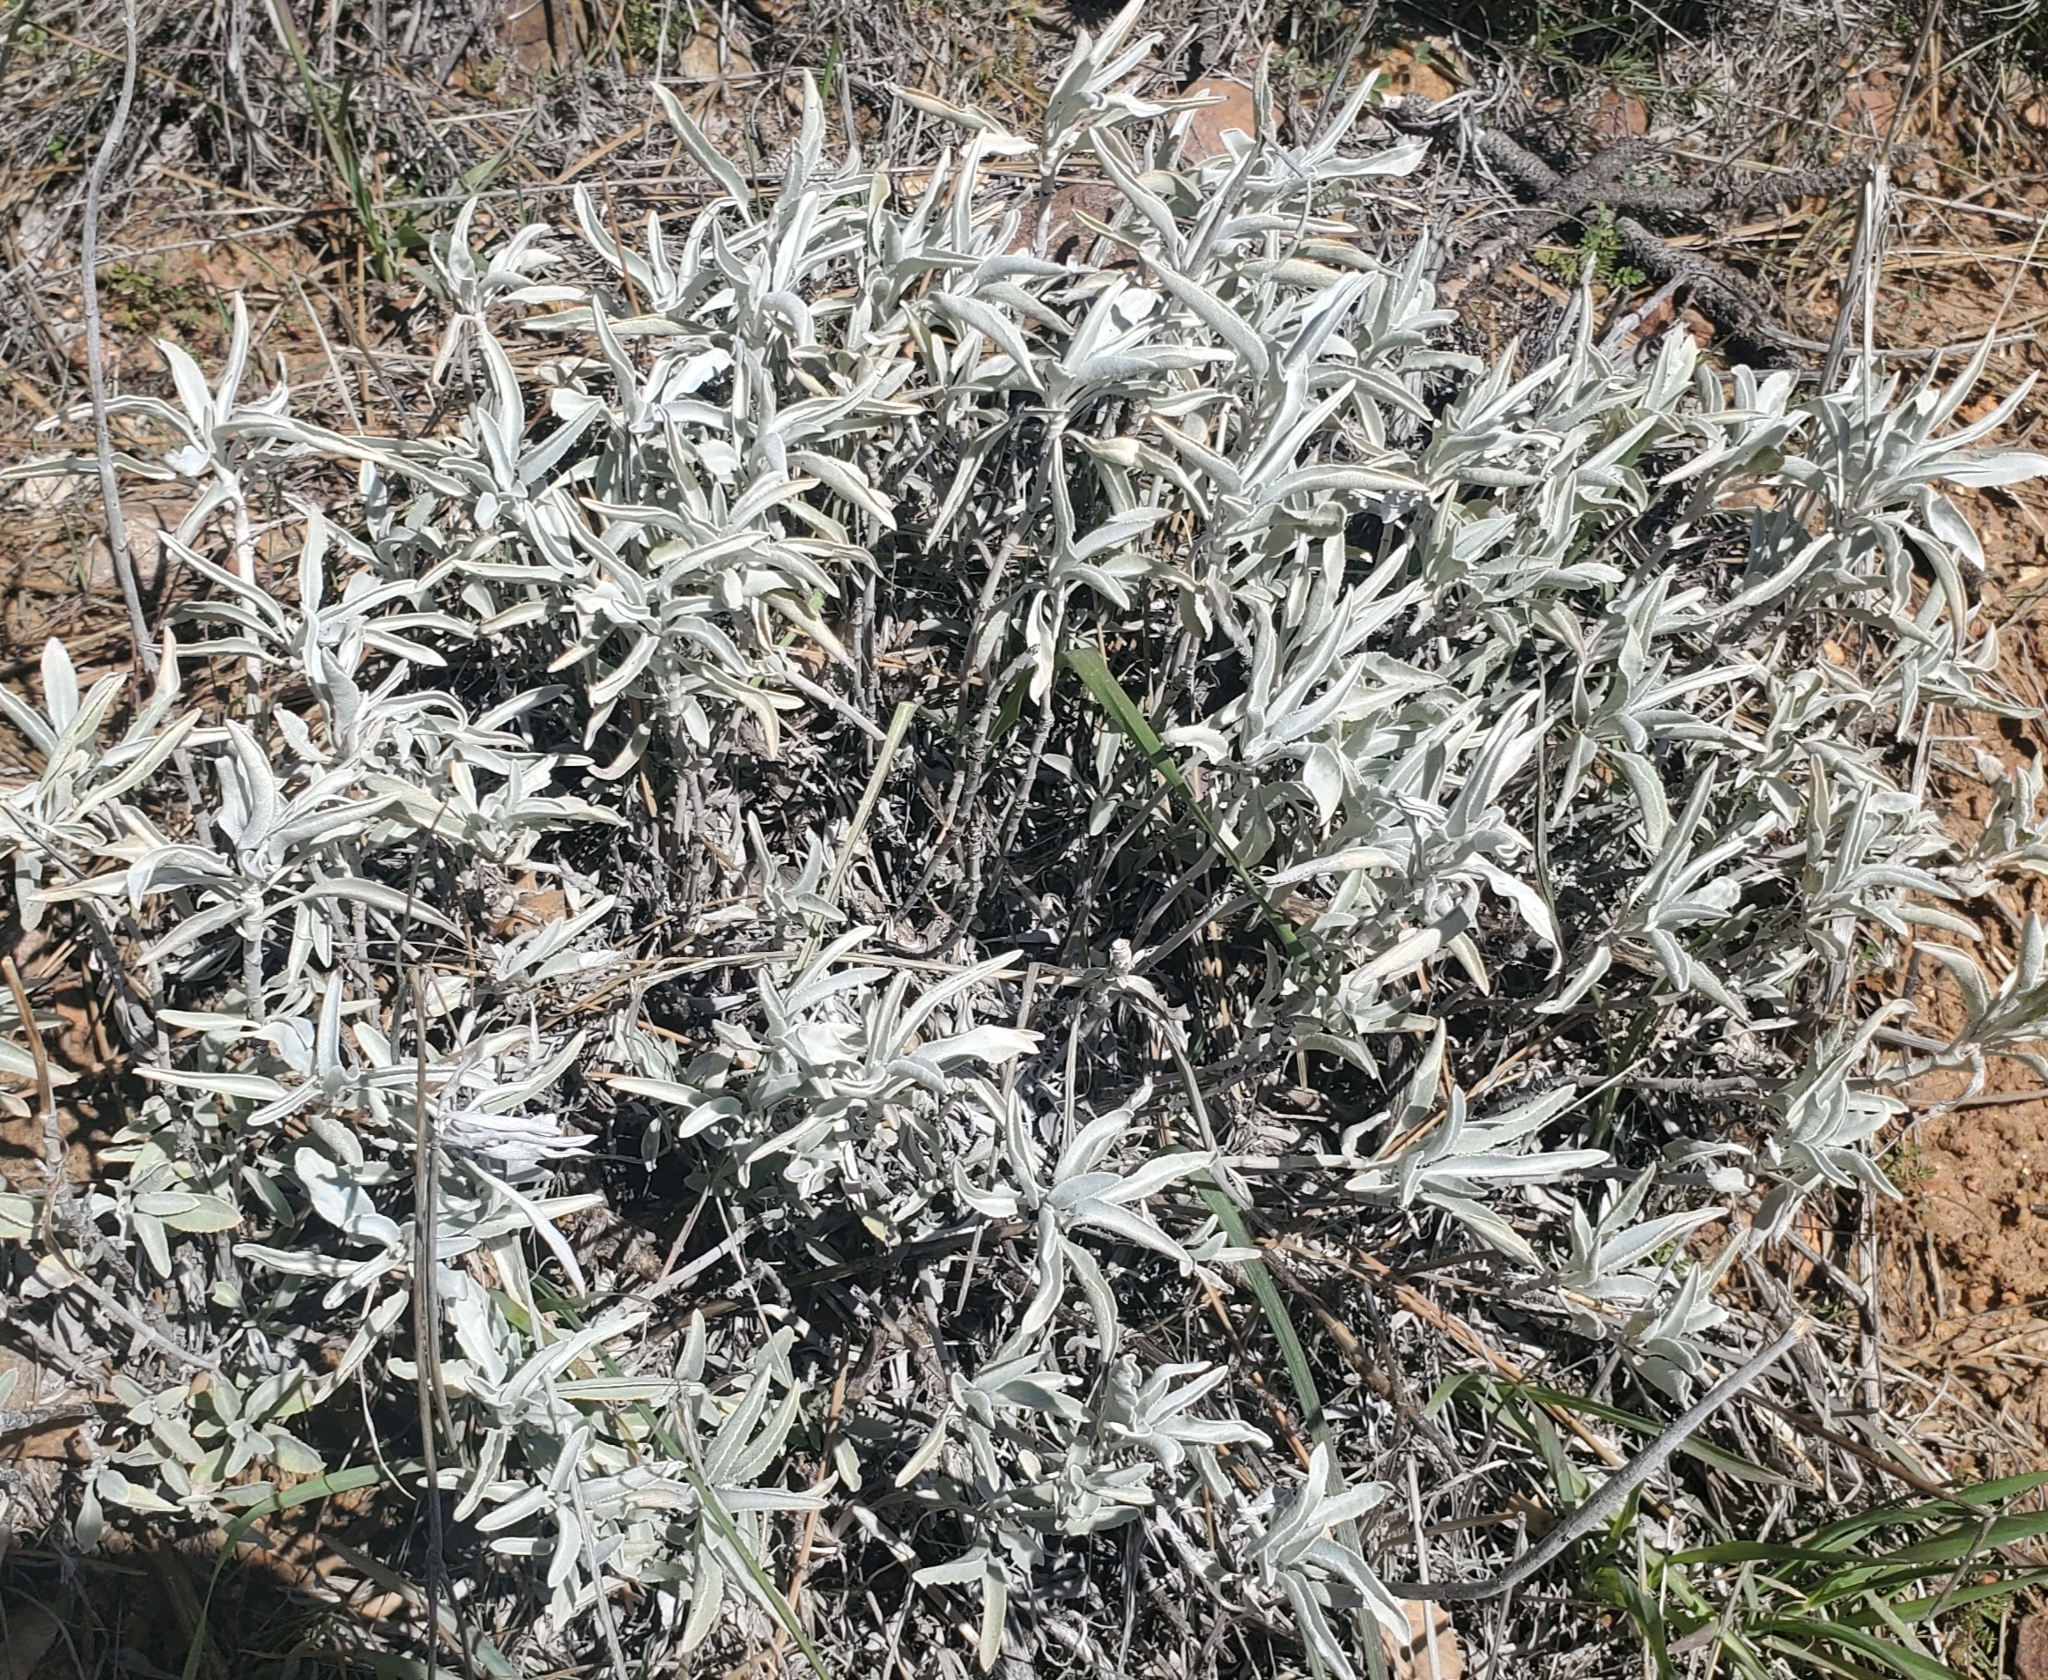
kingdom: Plantae
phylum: Tracheophyta
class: Magnoliopsida
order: Lamiales
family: Lamiaceae
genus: Salvia
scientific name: Salvia apiana
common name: White sage
